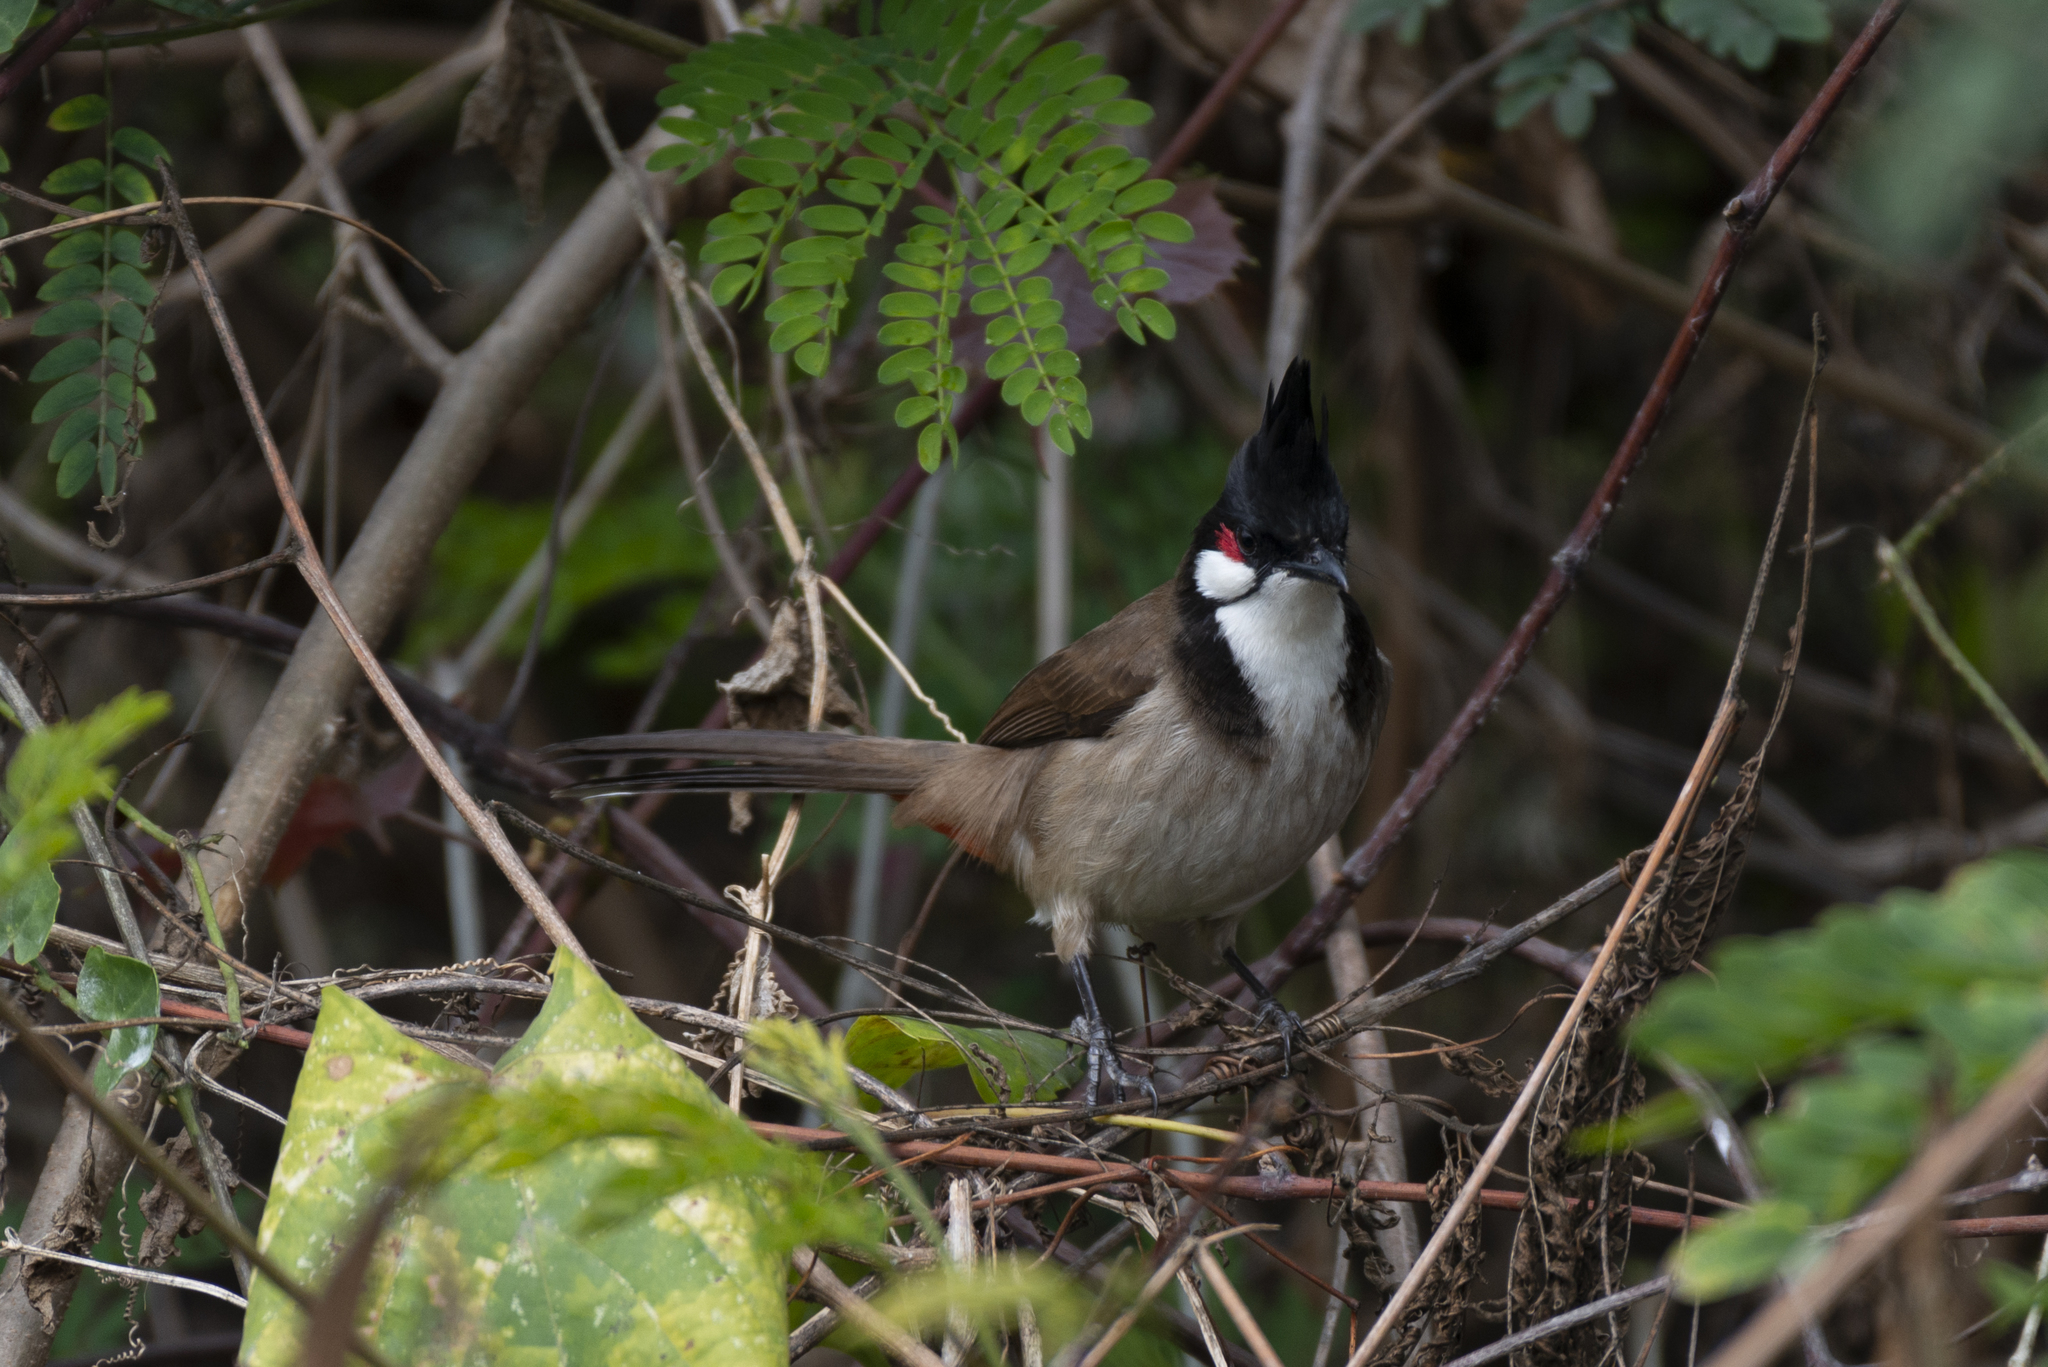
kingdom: Animalia
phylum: Chordata
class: Aves
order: Passeriformes
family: Pycnonotidae
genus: Pycnonotus
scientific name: Pycnonotus jocosus
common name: Red-whiskered bulbul
